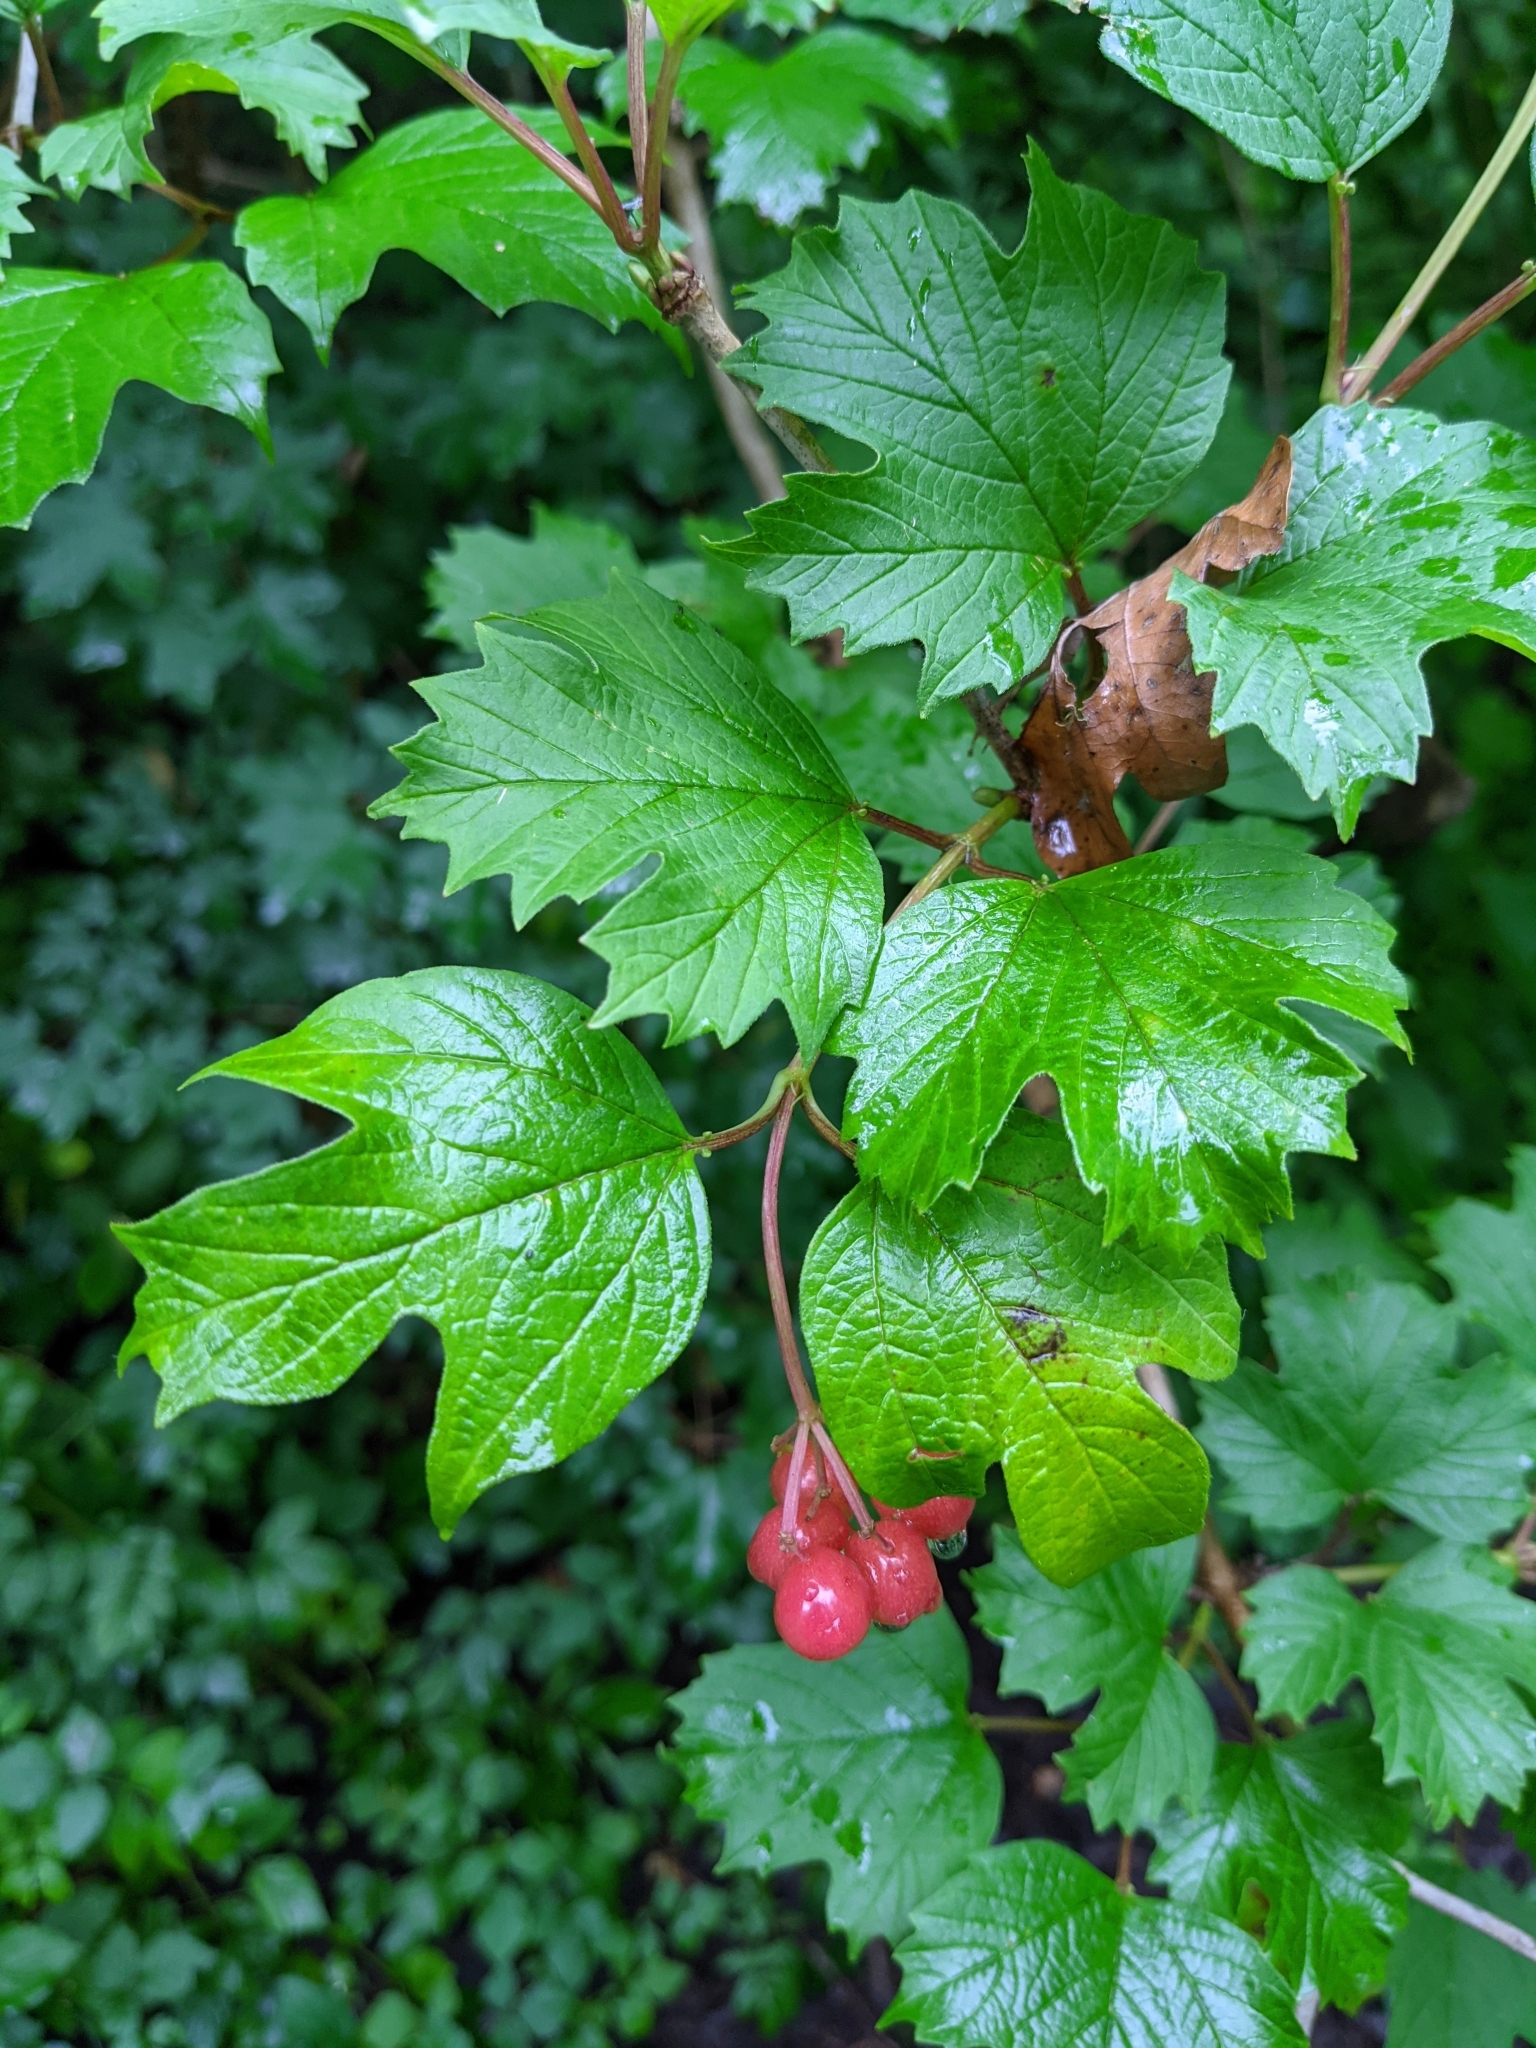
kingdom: Plantae
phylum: Tracheophyta
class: Magnoliopsida
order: Dipsacales
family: Viburnaceae
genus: Viburnum
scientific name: Viburnum opulus
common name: Guelder-rose
